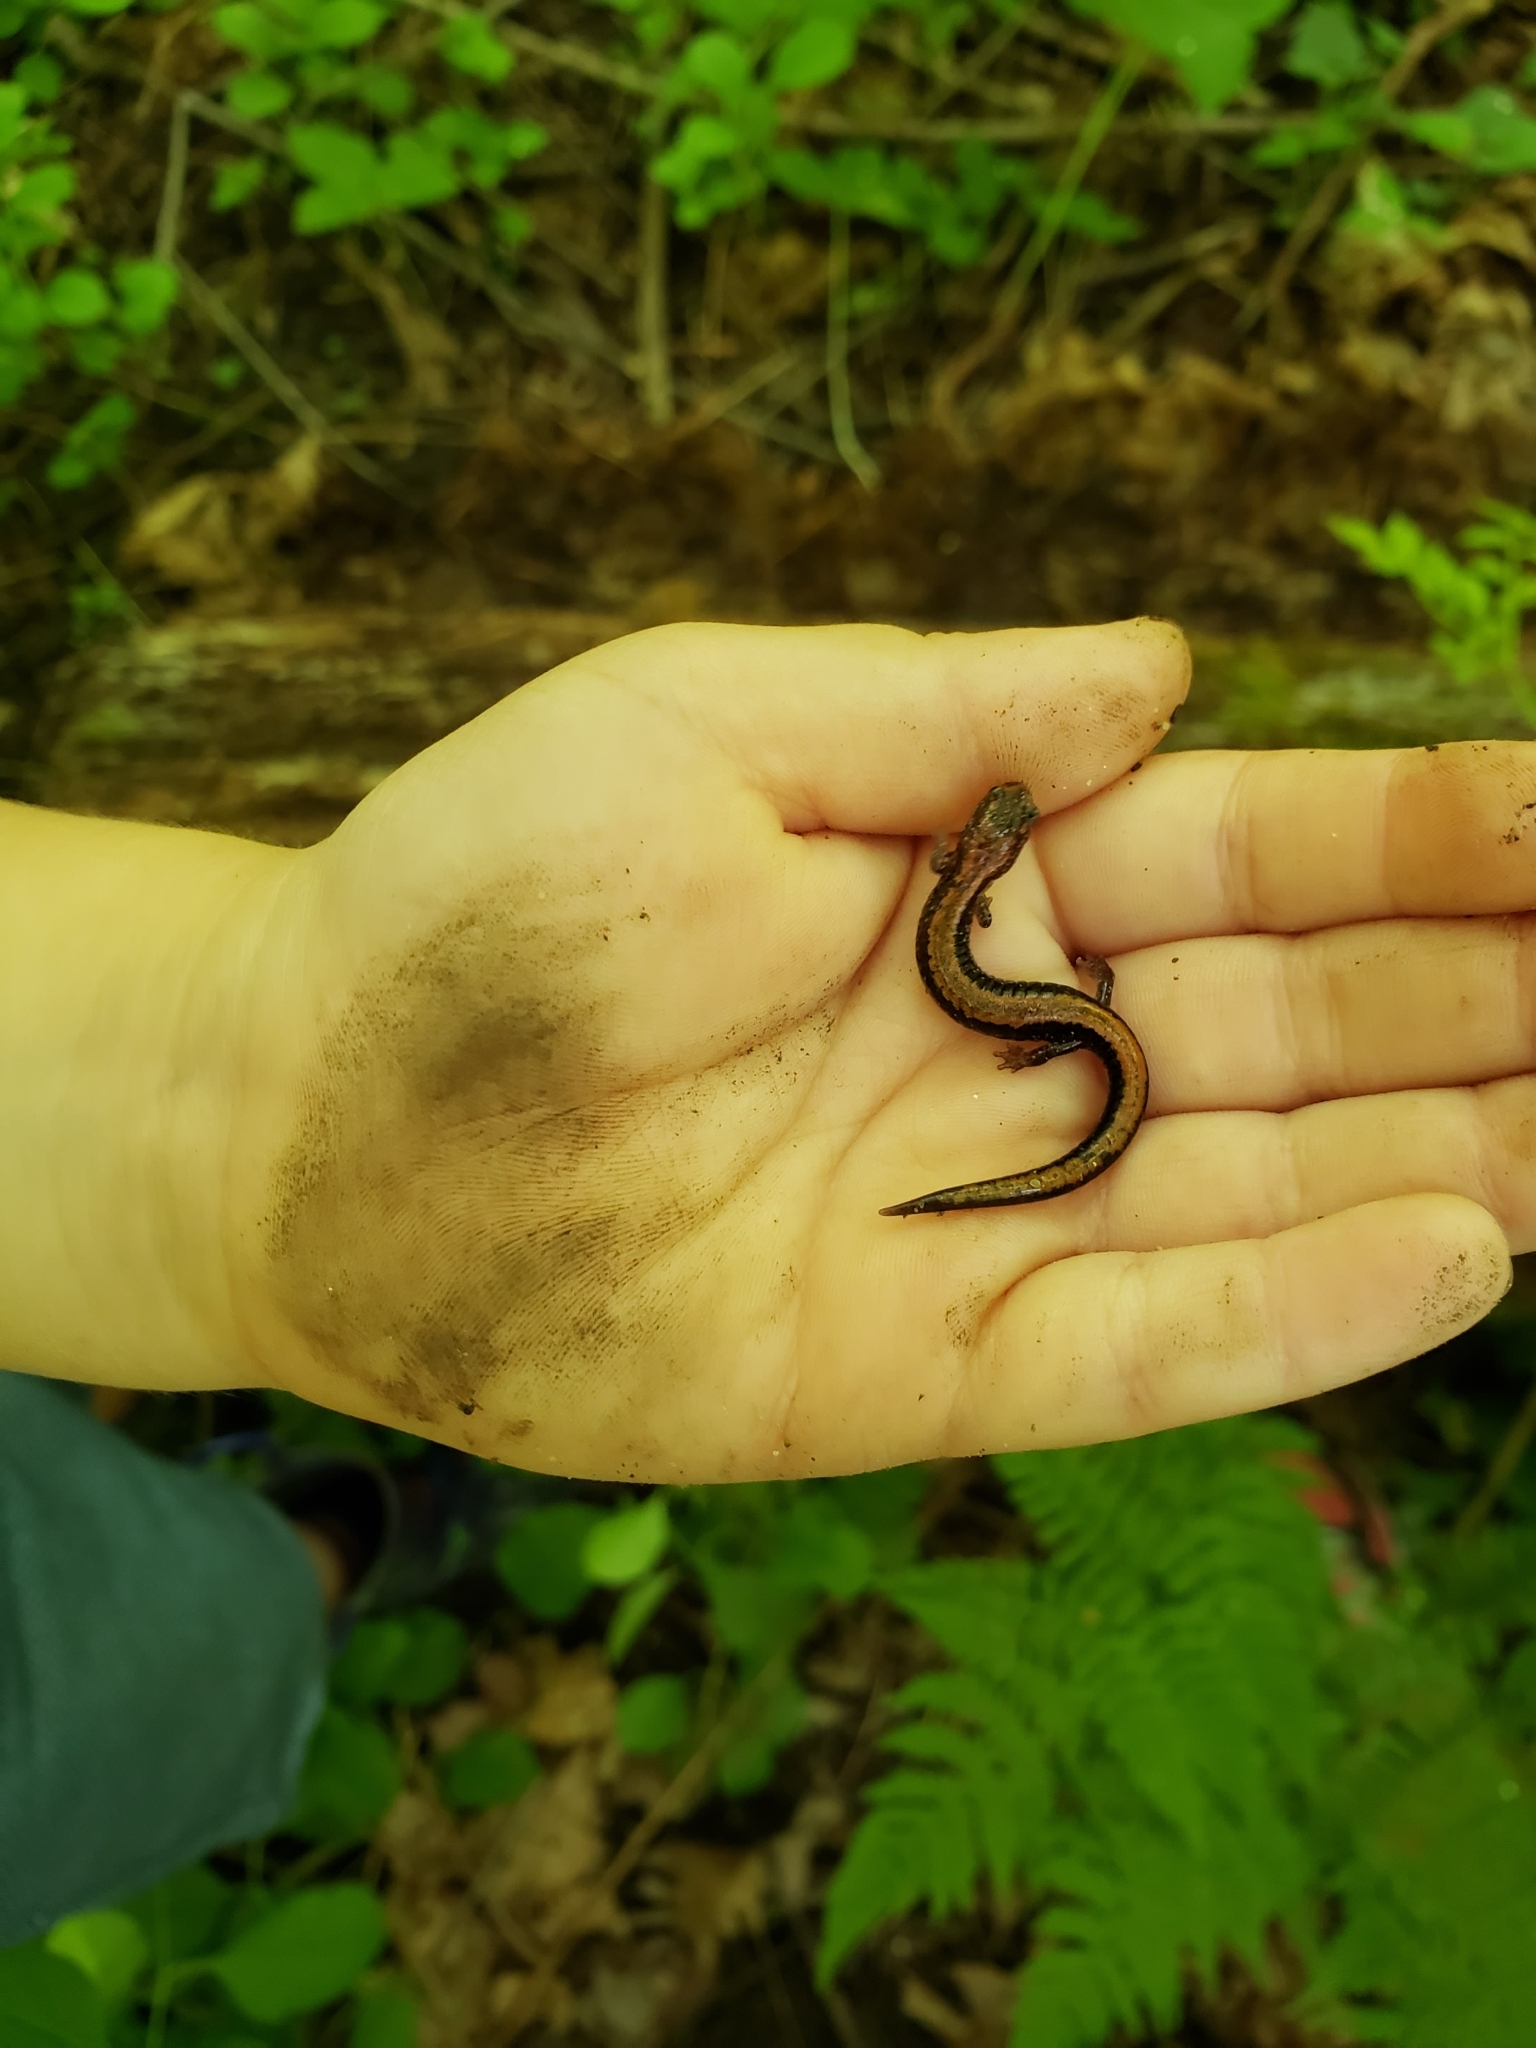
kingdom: Animalia
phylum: Chordata
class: Amphibia
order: Caudata
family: Plethodontidae
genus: Plethodon
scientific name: Plethodon cinereus
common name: Redback salamander
